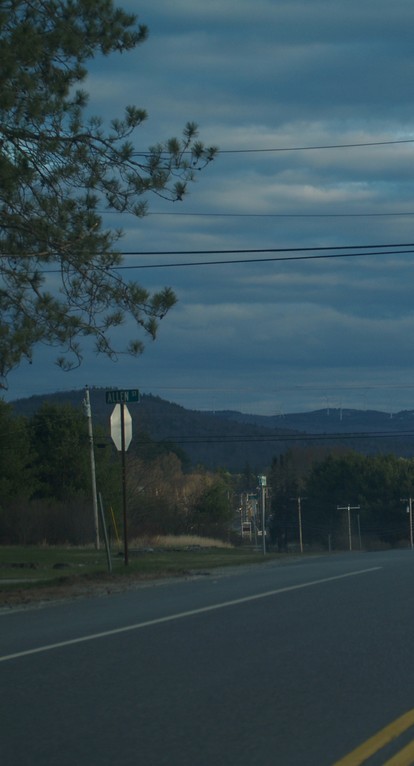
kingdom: Plantae
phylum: Tracheophyta
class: Pinopsida
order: Pinales
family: Pinaceae
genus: Pinus
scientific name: Pinus resinosa
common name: Norway pine
